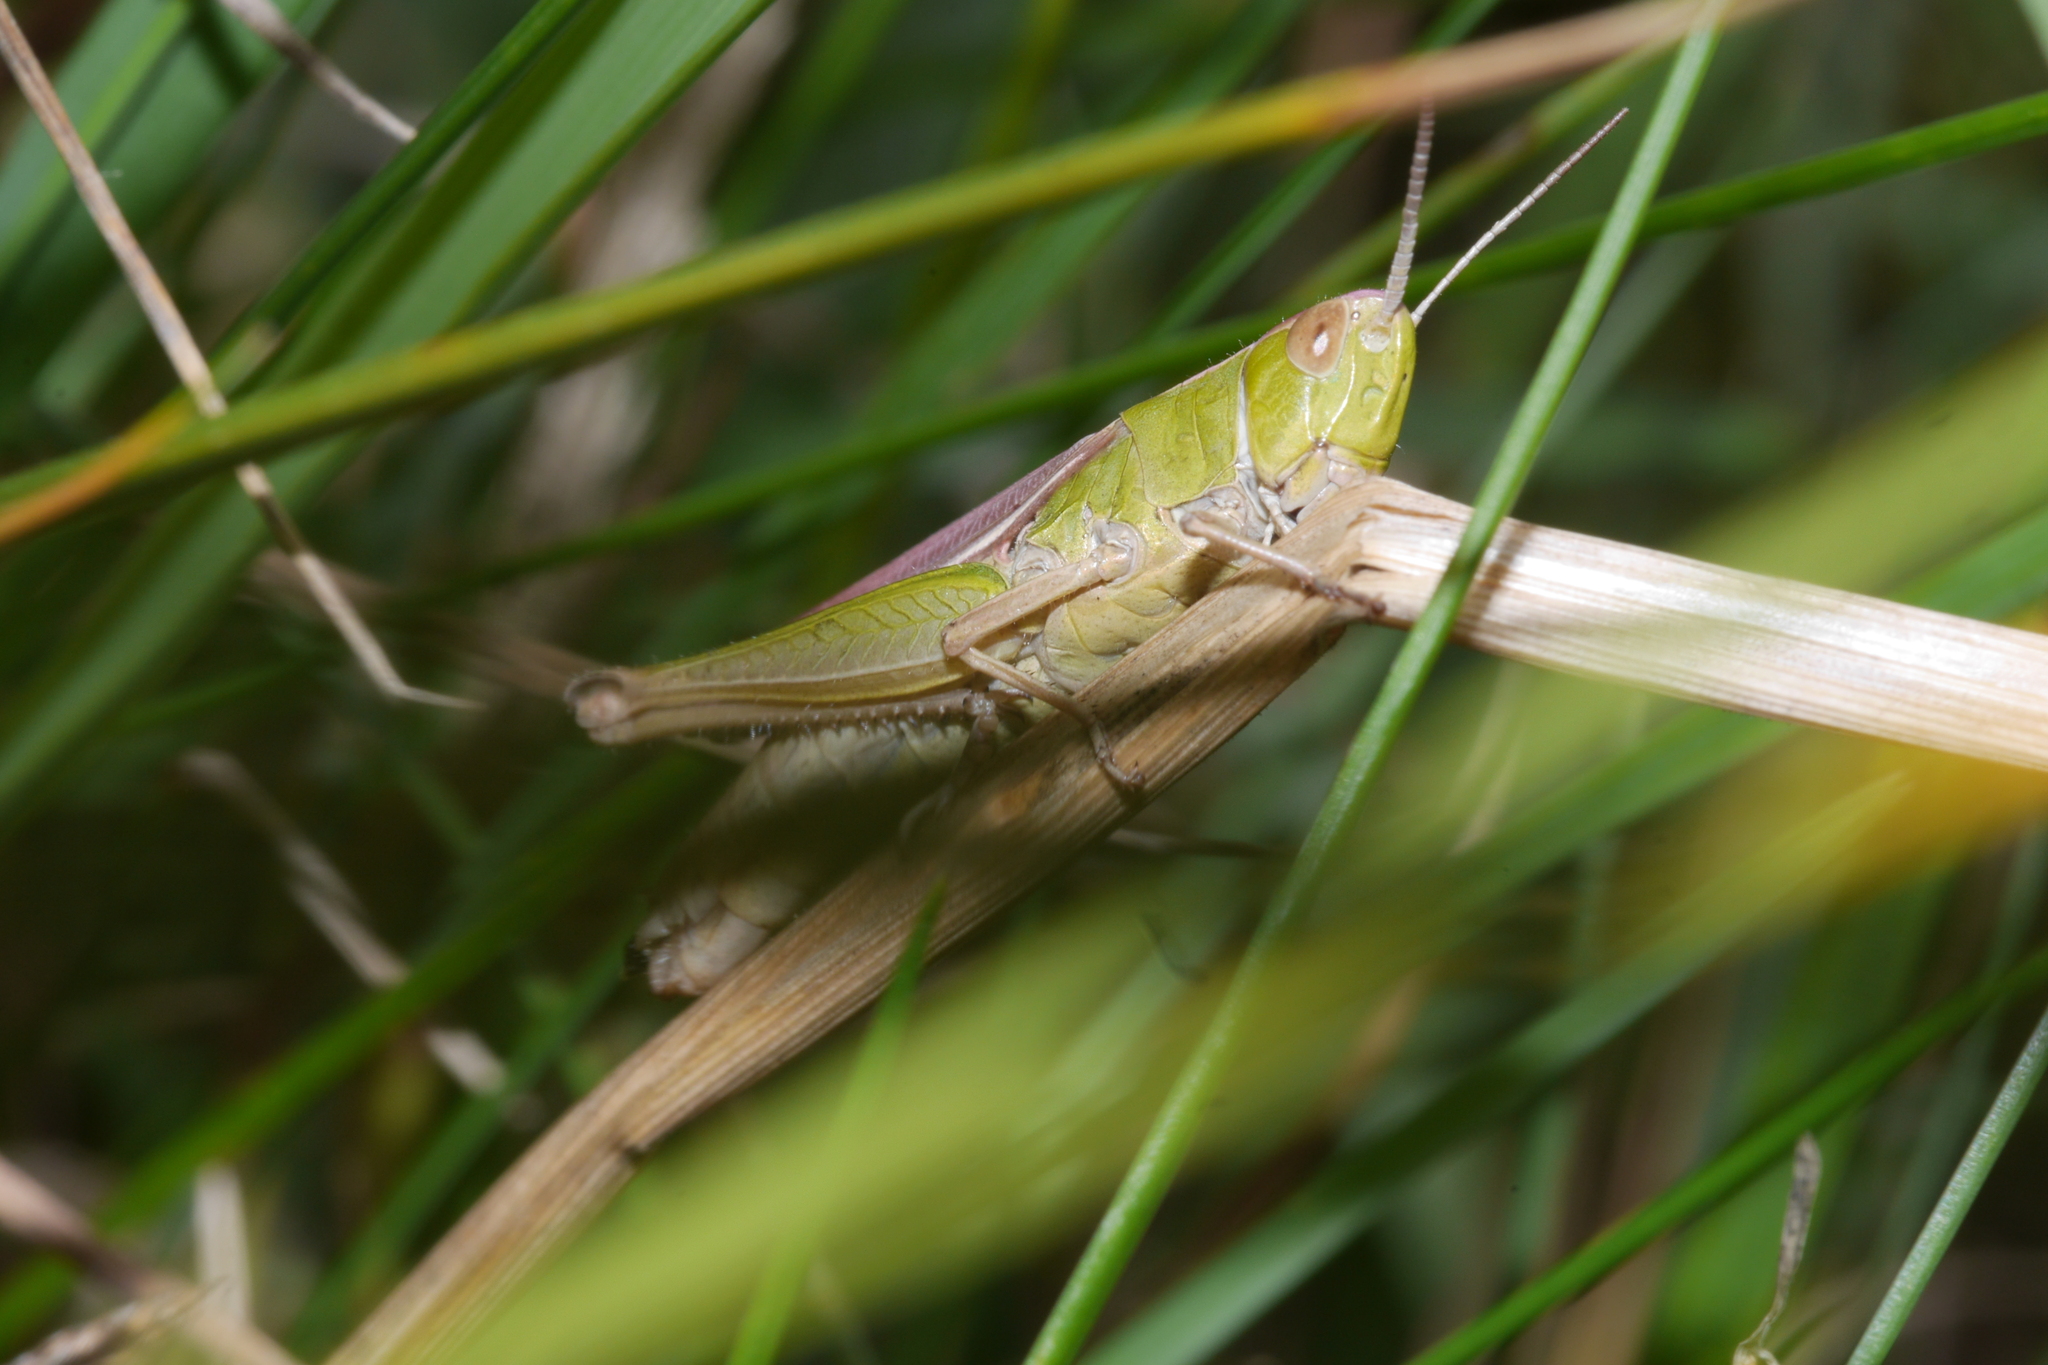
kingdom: Animalia
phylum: Arthropoda
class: Insecta
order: Orthoptera
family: Acrididae
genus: Chorthippus
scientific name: Chorthippus albomarginatus
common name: Lesser marsh grasshopper
